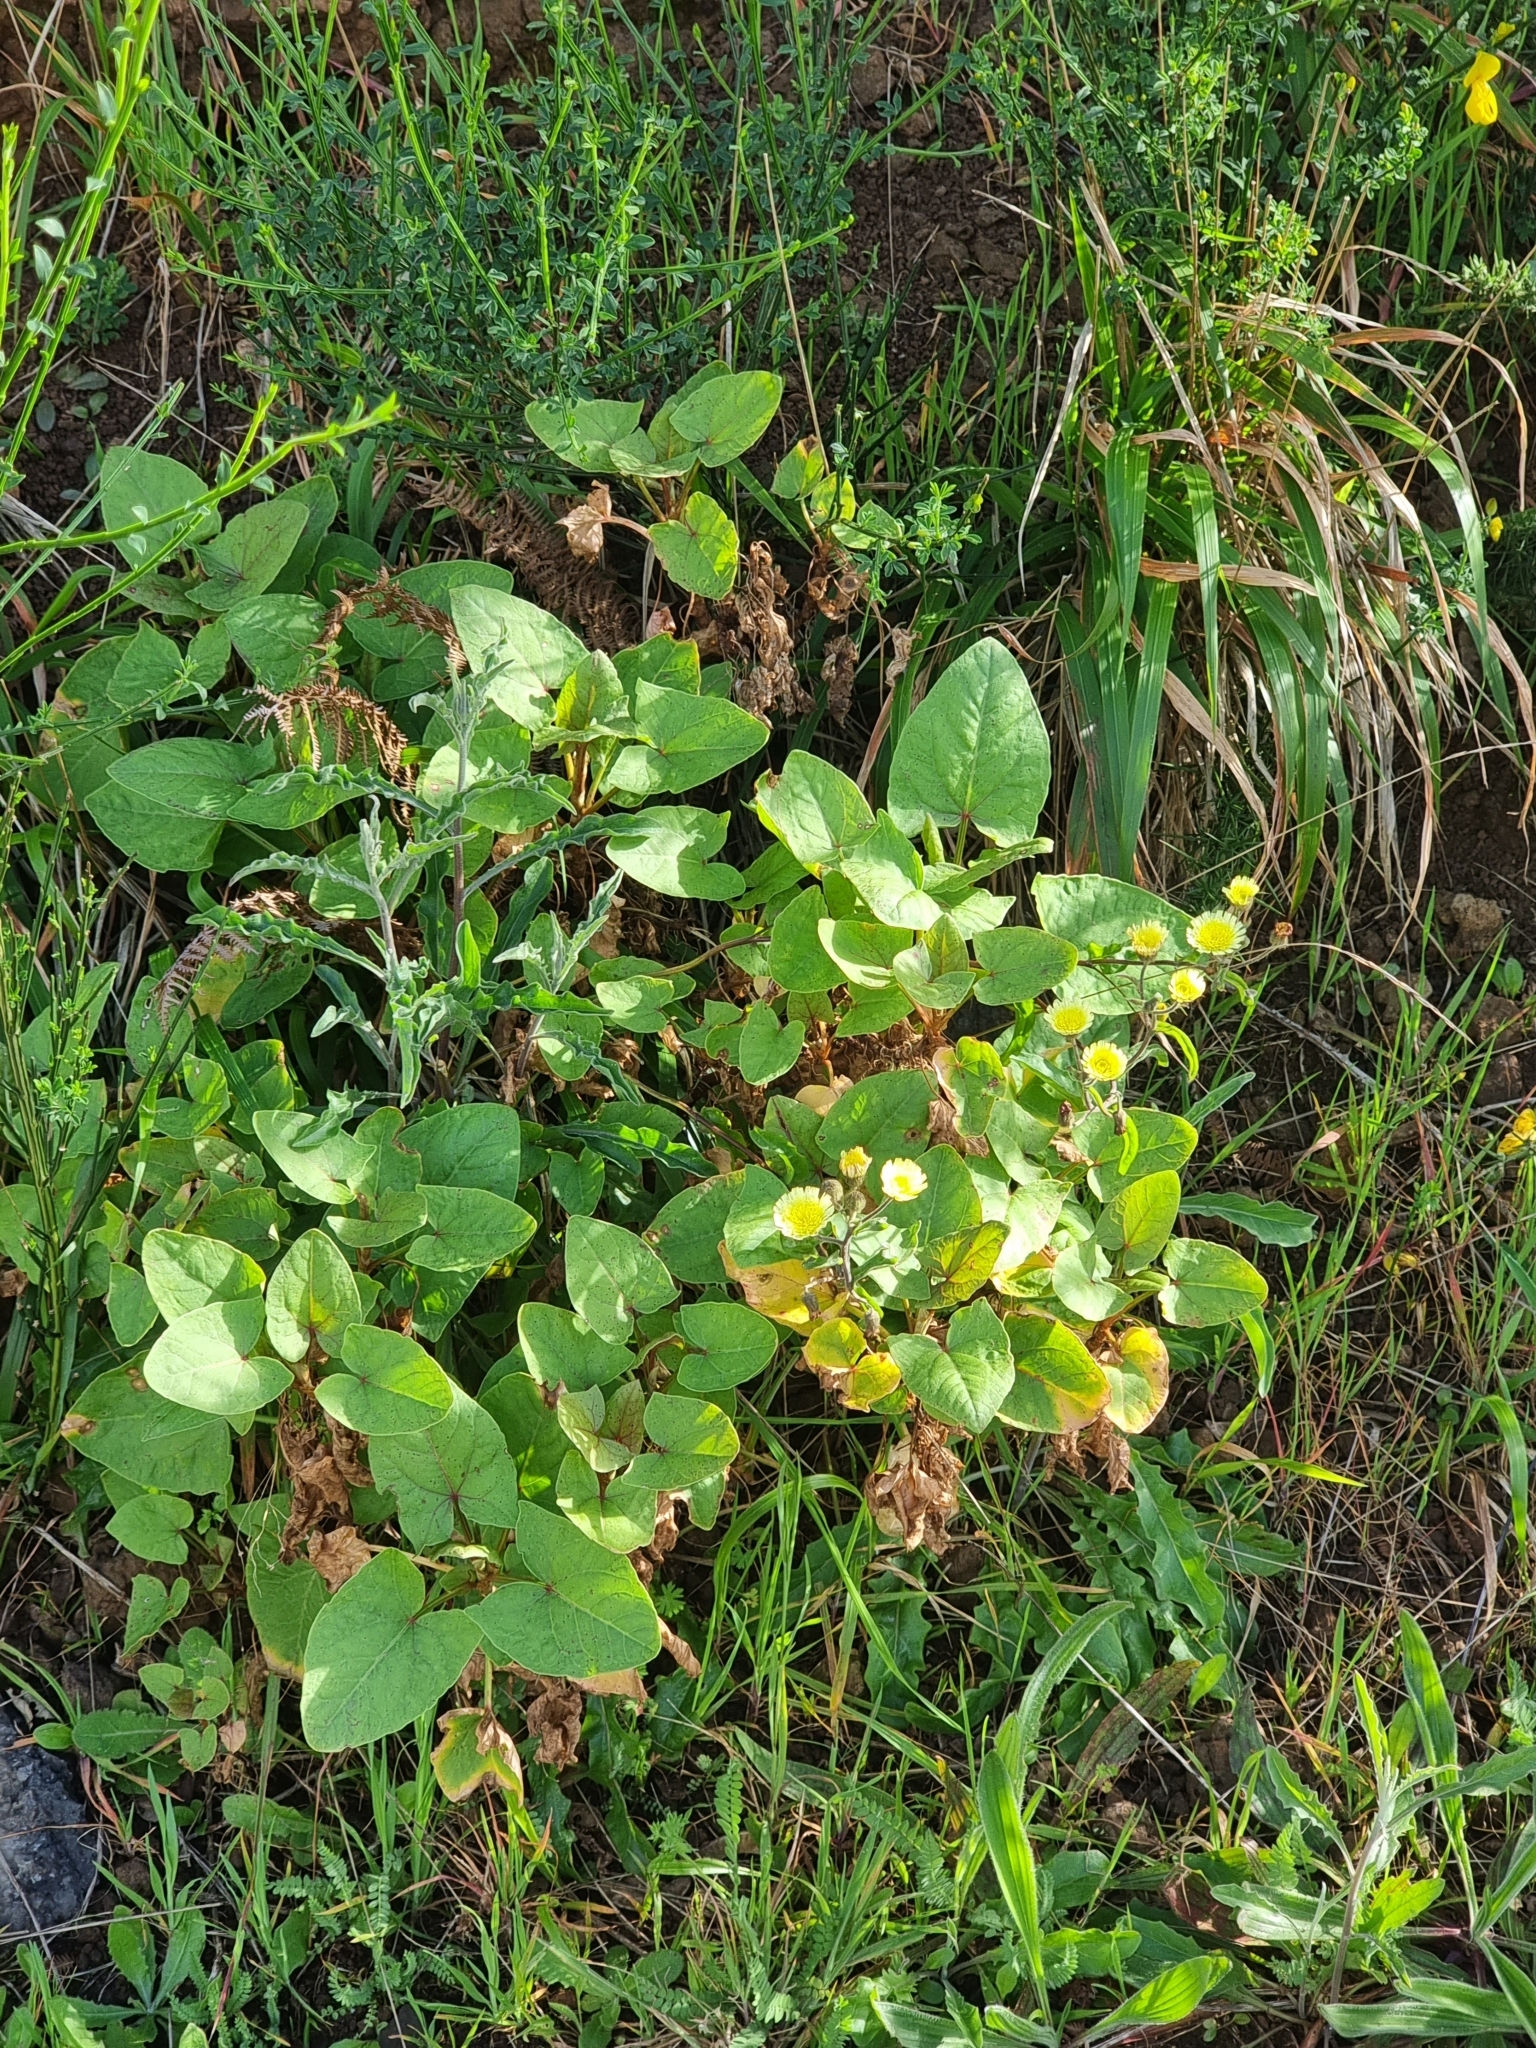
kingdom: Plantae
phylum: Tracheophyta
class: Magnoliopsida
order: Caryophyllales
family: Polygonaceae
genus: Rumex
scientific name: Rumex maderensis
